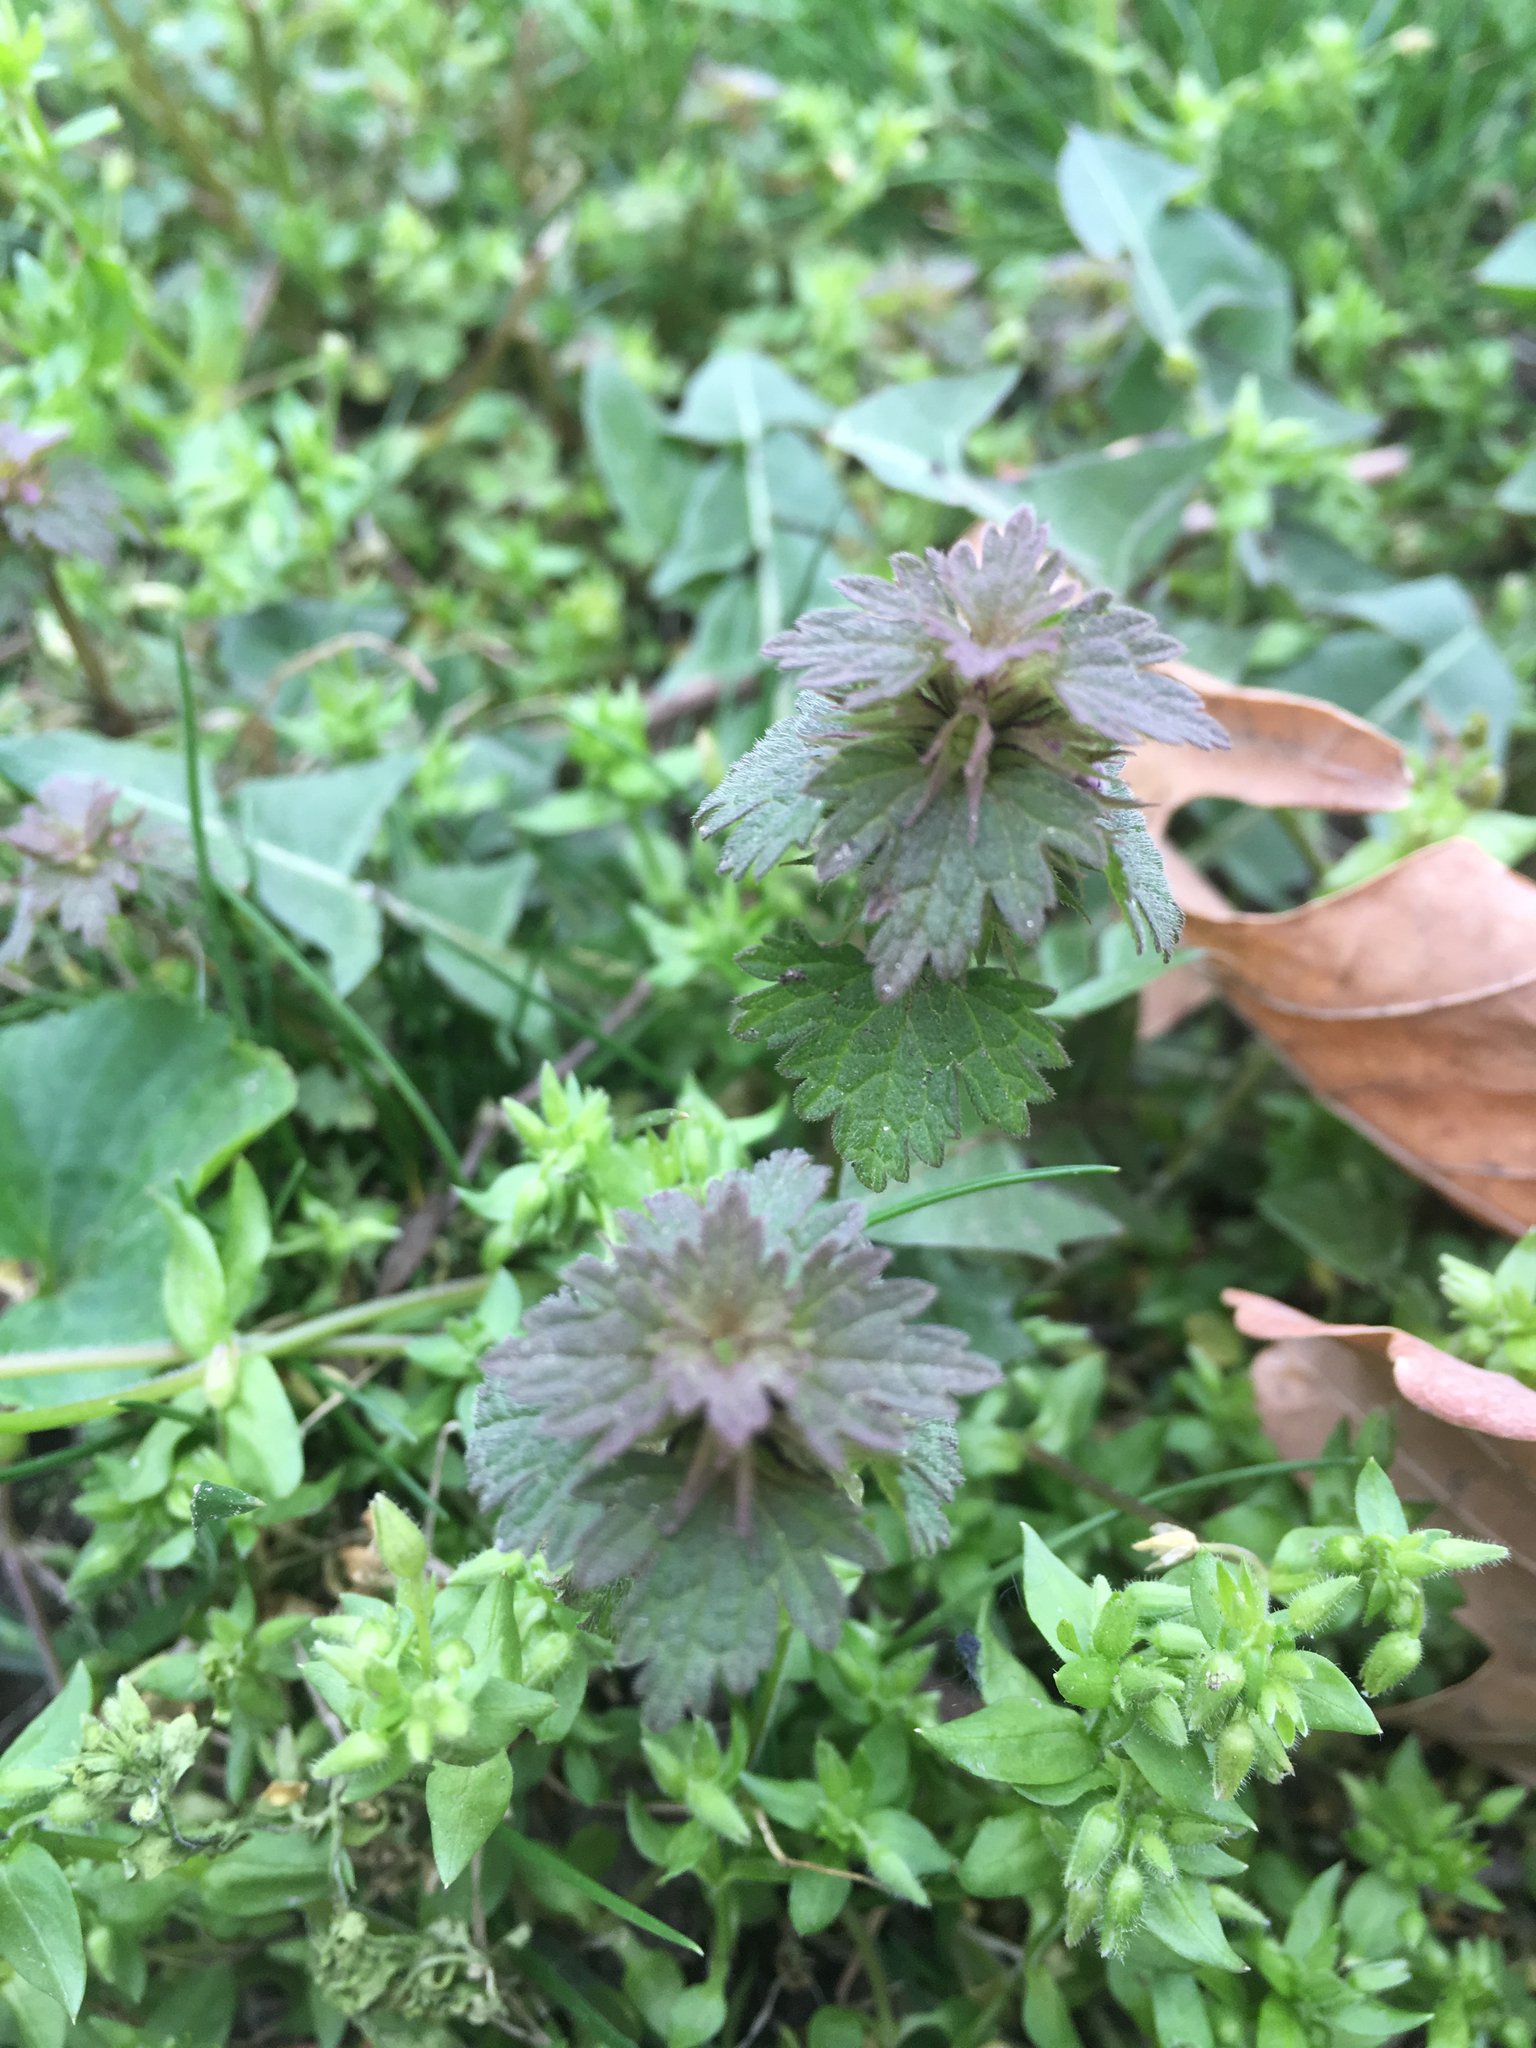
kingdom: Plantae
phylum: Tracheophyta
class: Magnoliopsida
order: Lamiales
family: Lamiaceae
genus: Lamium
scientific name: Lamium hybridum
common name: Cut-leaved dead-nettle
